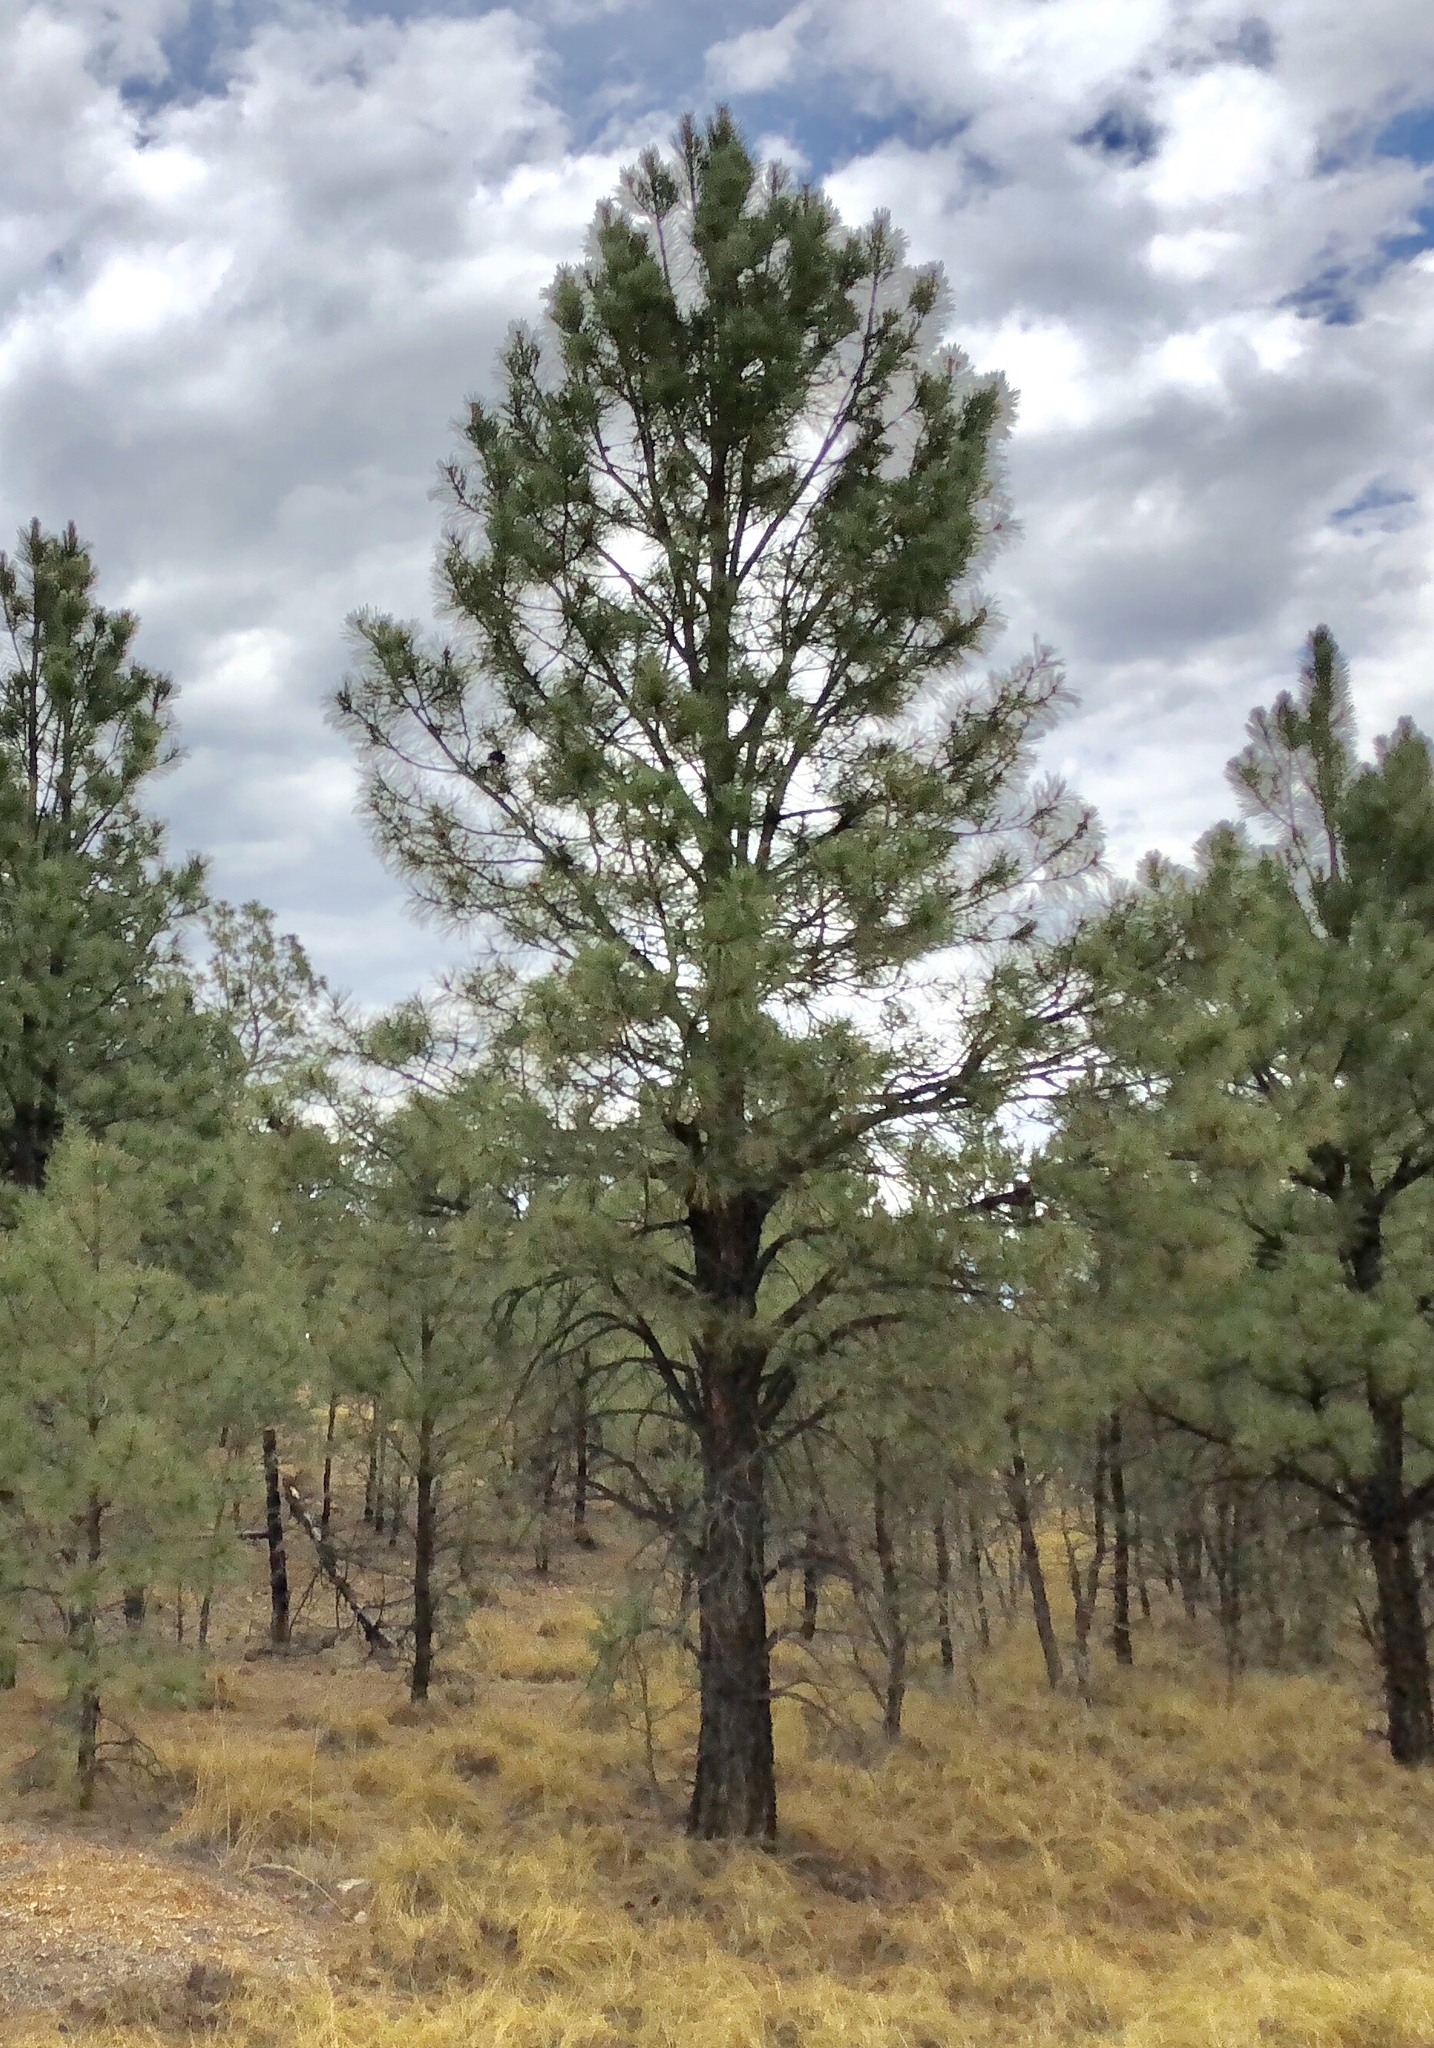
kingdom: Plantae
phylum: Tracheophyta
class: Pinopsida
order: Pinales
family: Pinaceae
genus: Pinus
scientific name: Pinus ponderosa
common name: Western yellow-pine
